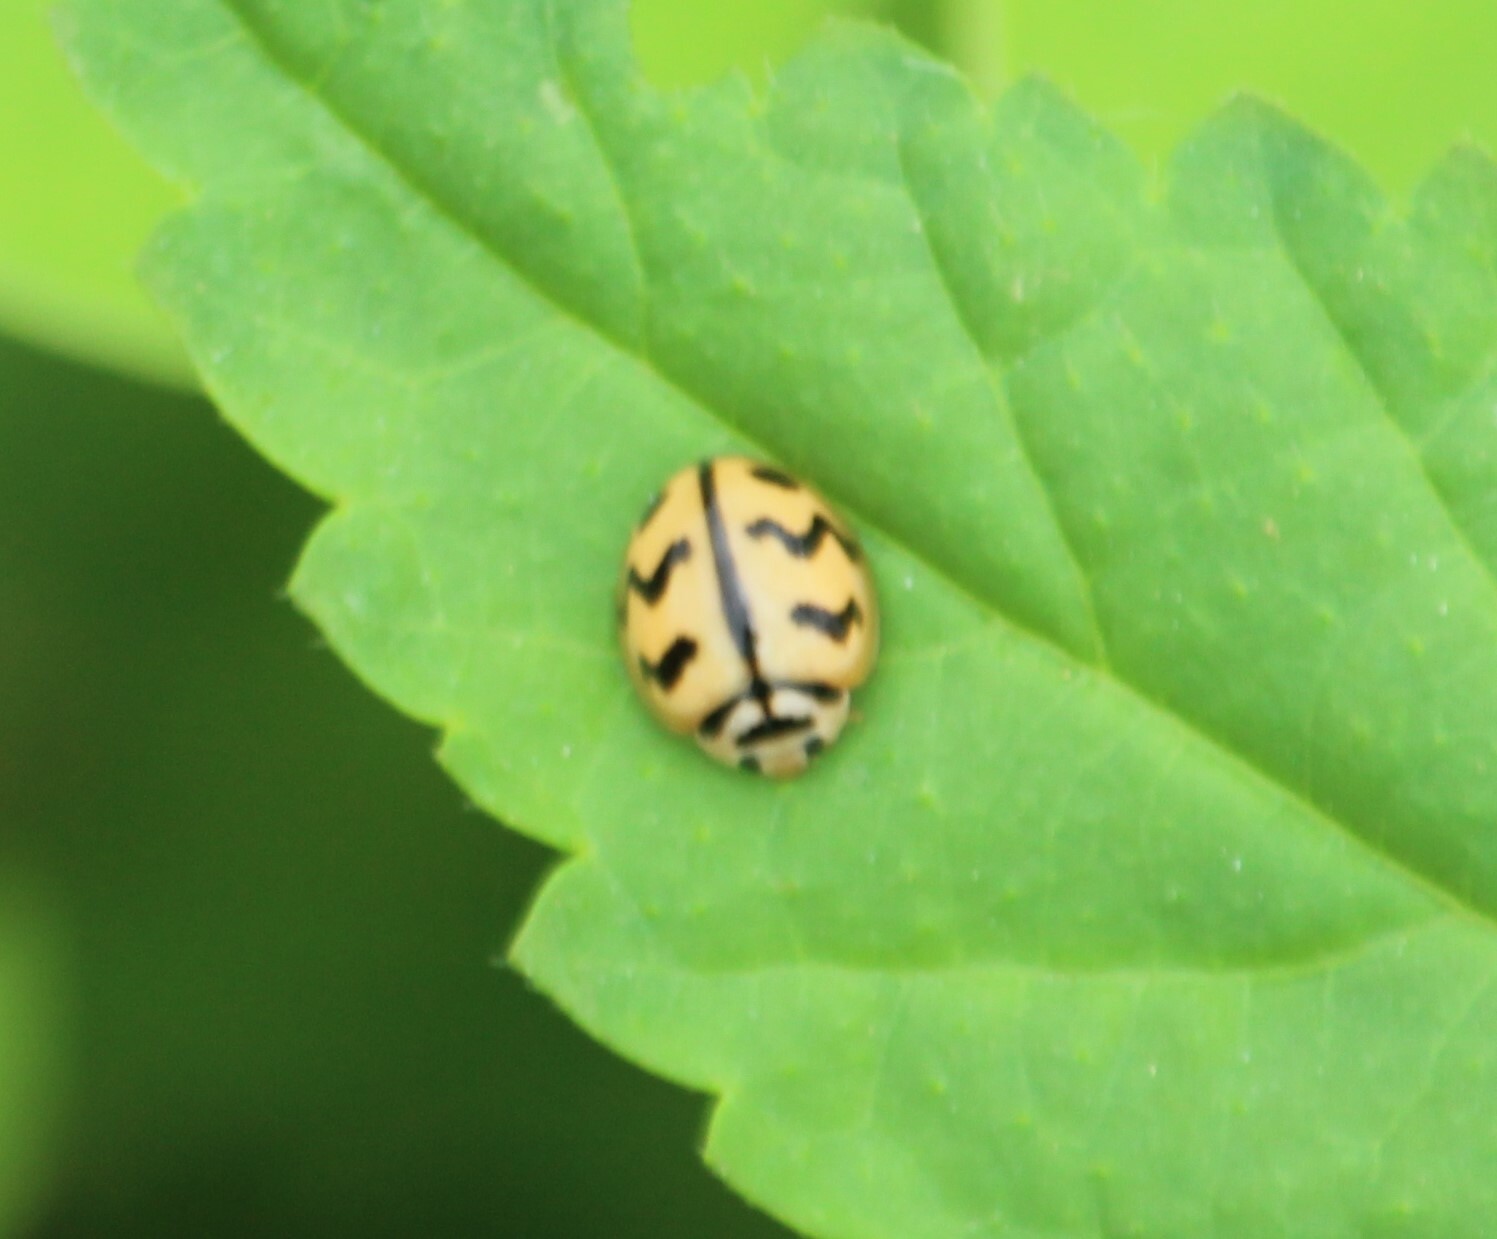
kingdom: Animalia
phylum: Arthropoda
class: Insecta
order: Coleoptera
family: Coccinellidae
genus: Cheilomenes
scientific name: Cheilomenes sexmaculata
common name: Ladybird beetle
